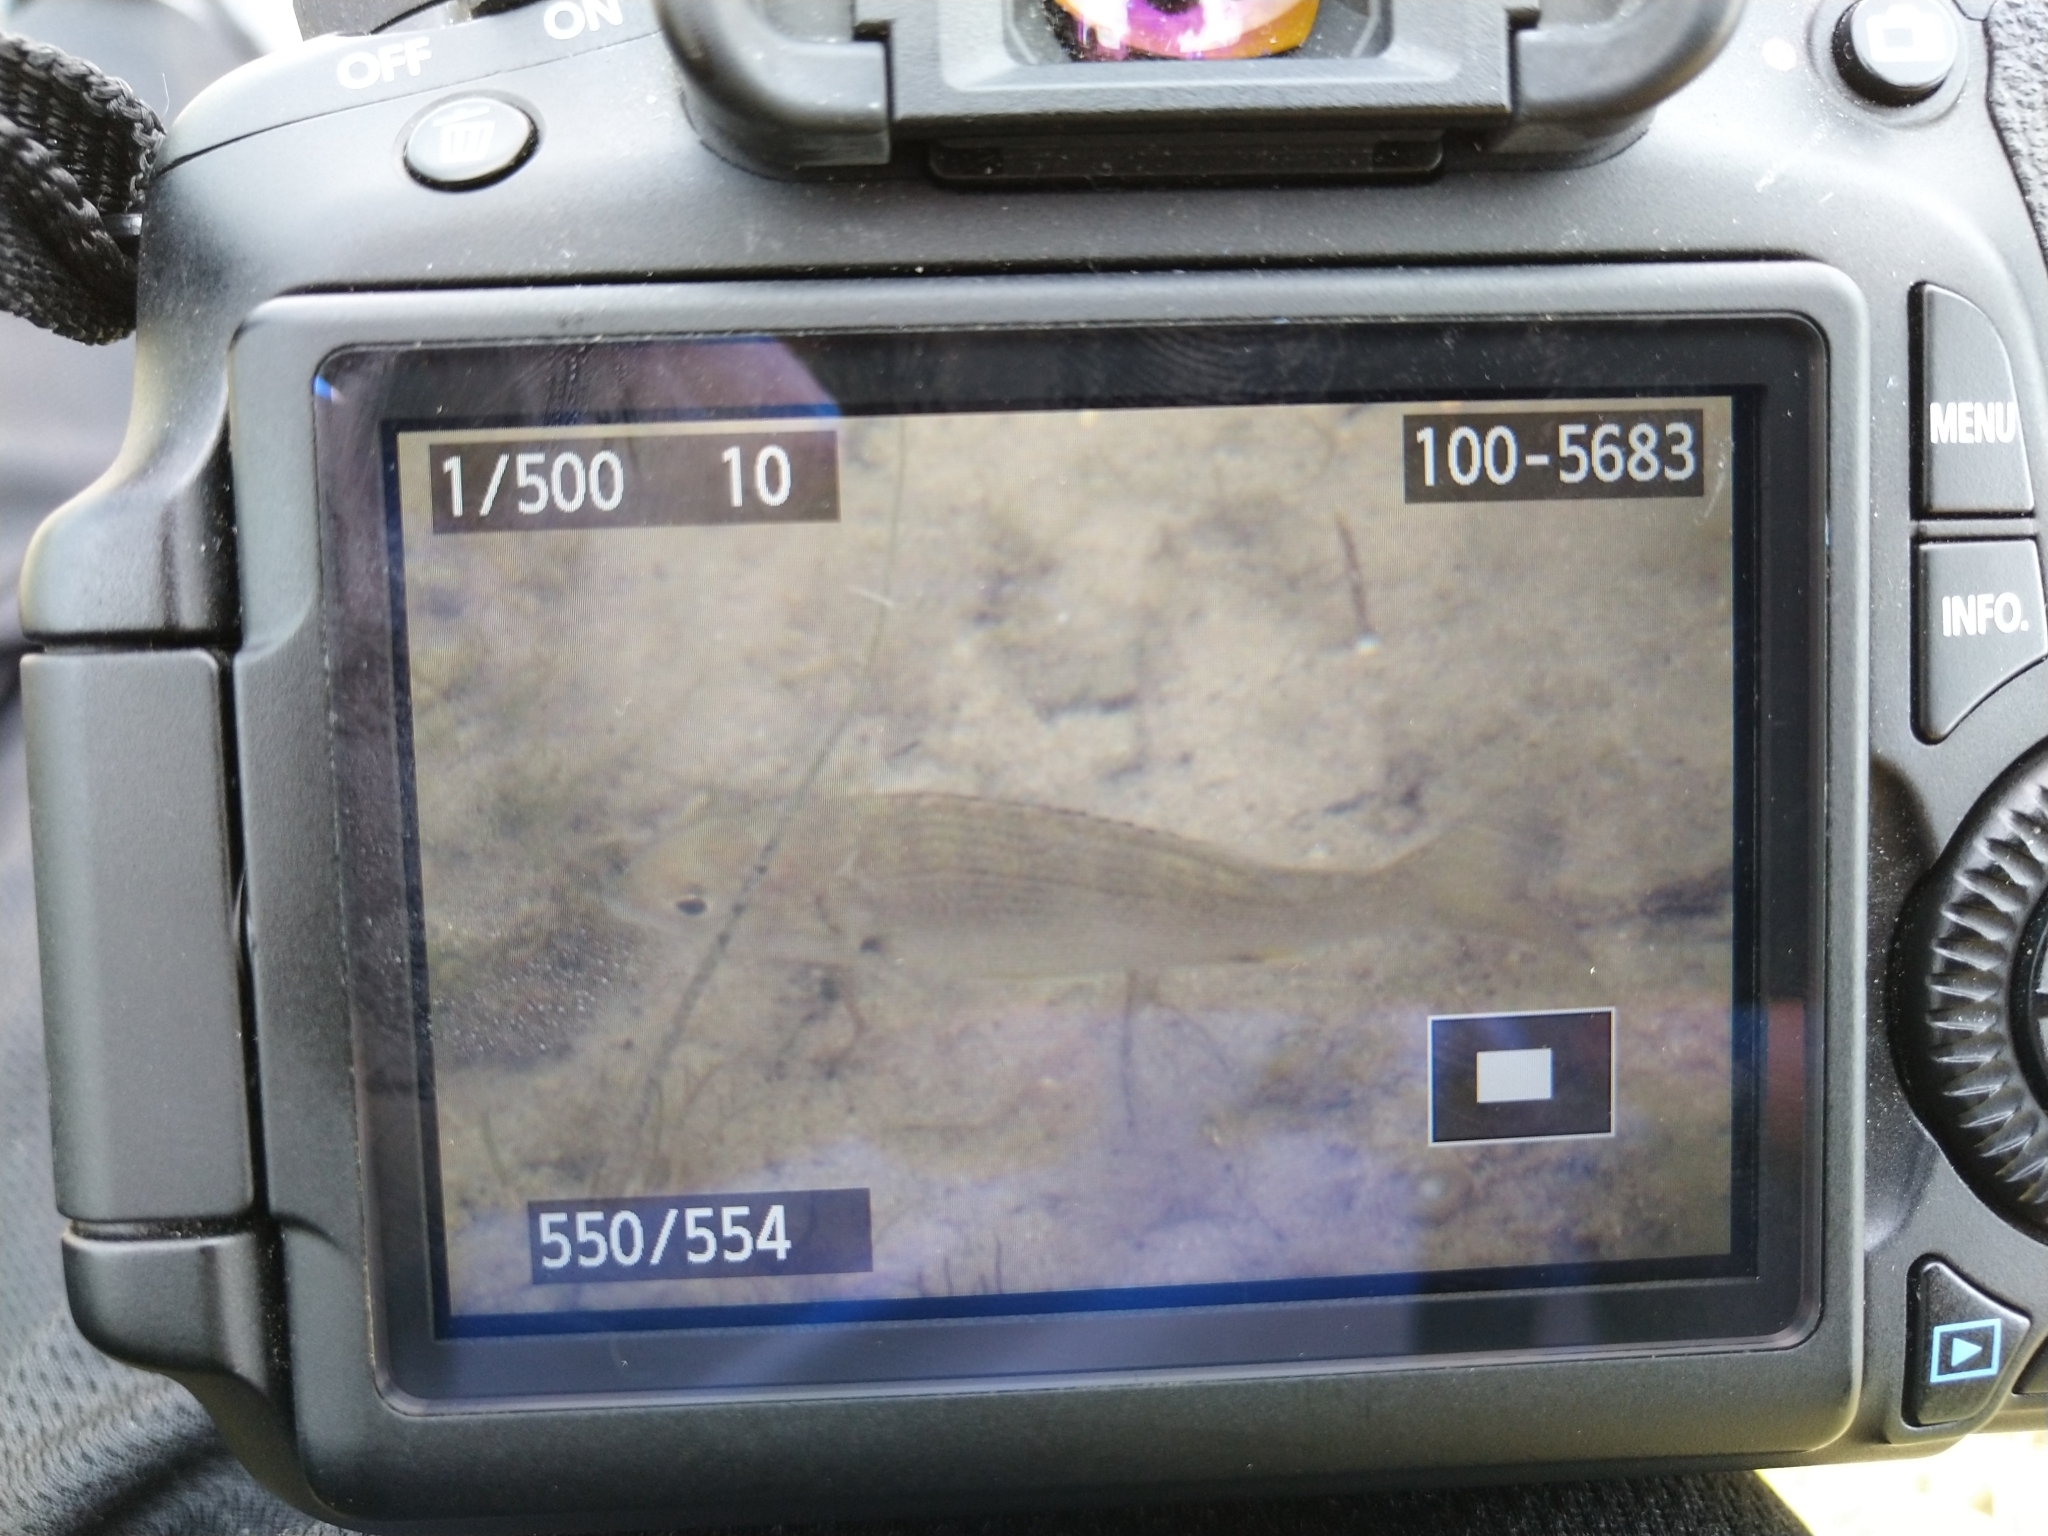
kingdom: Animalia
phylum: Chordata
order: Perciformes
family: Sparidae
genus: Acanthopagrus
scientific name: Acanthopagrus butcheri
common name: Black bream
